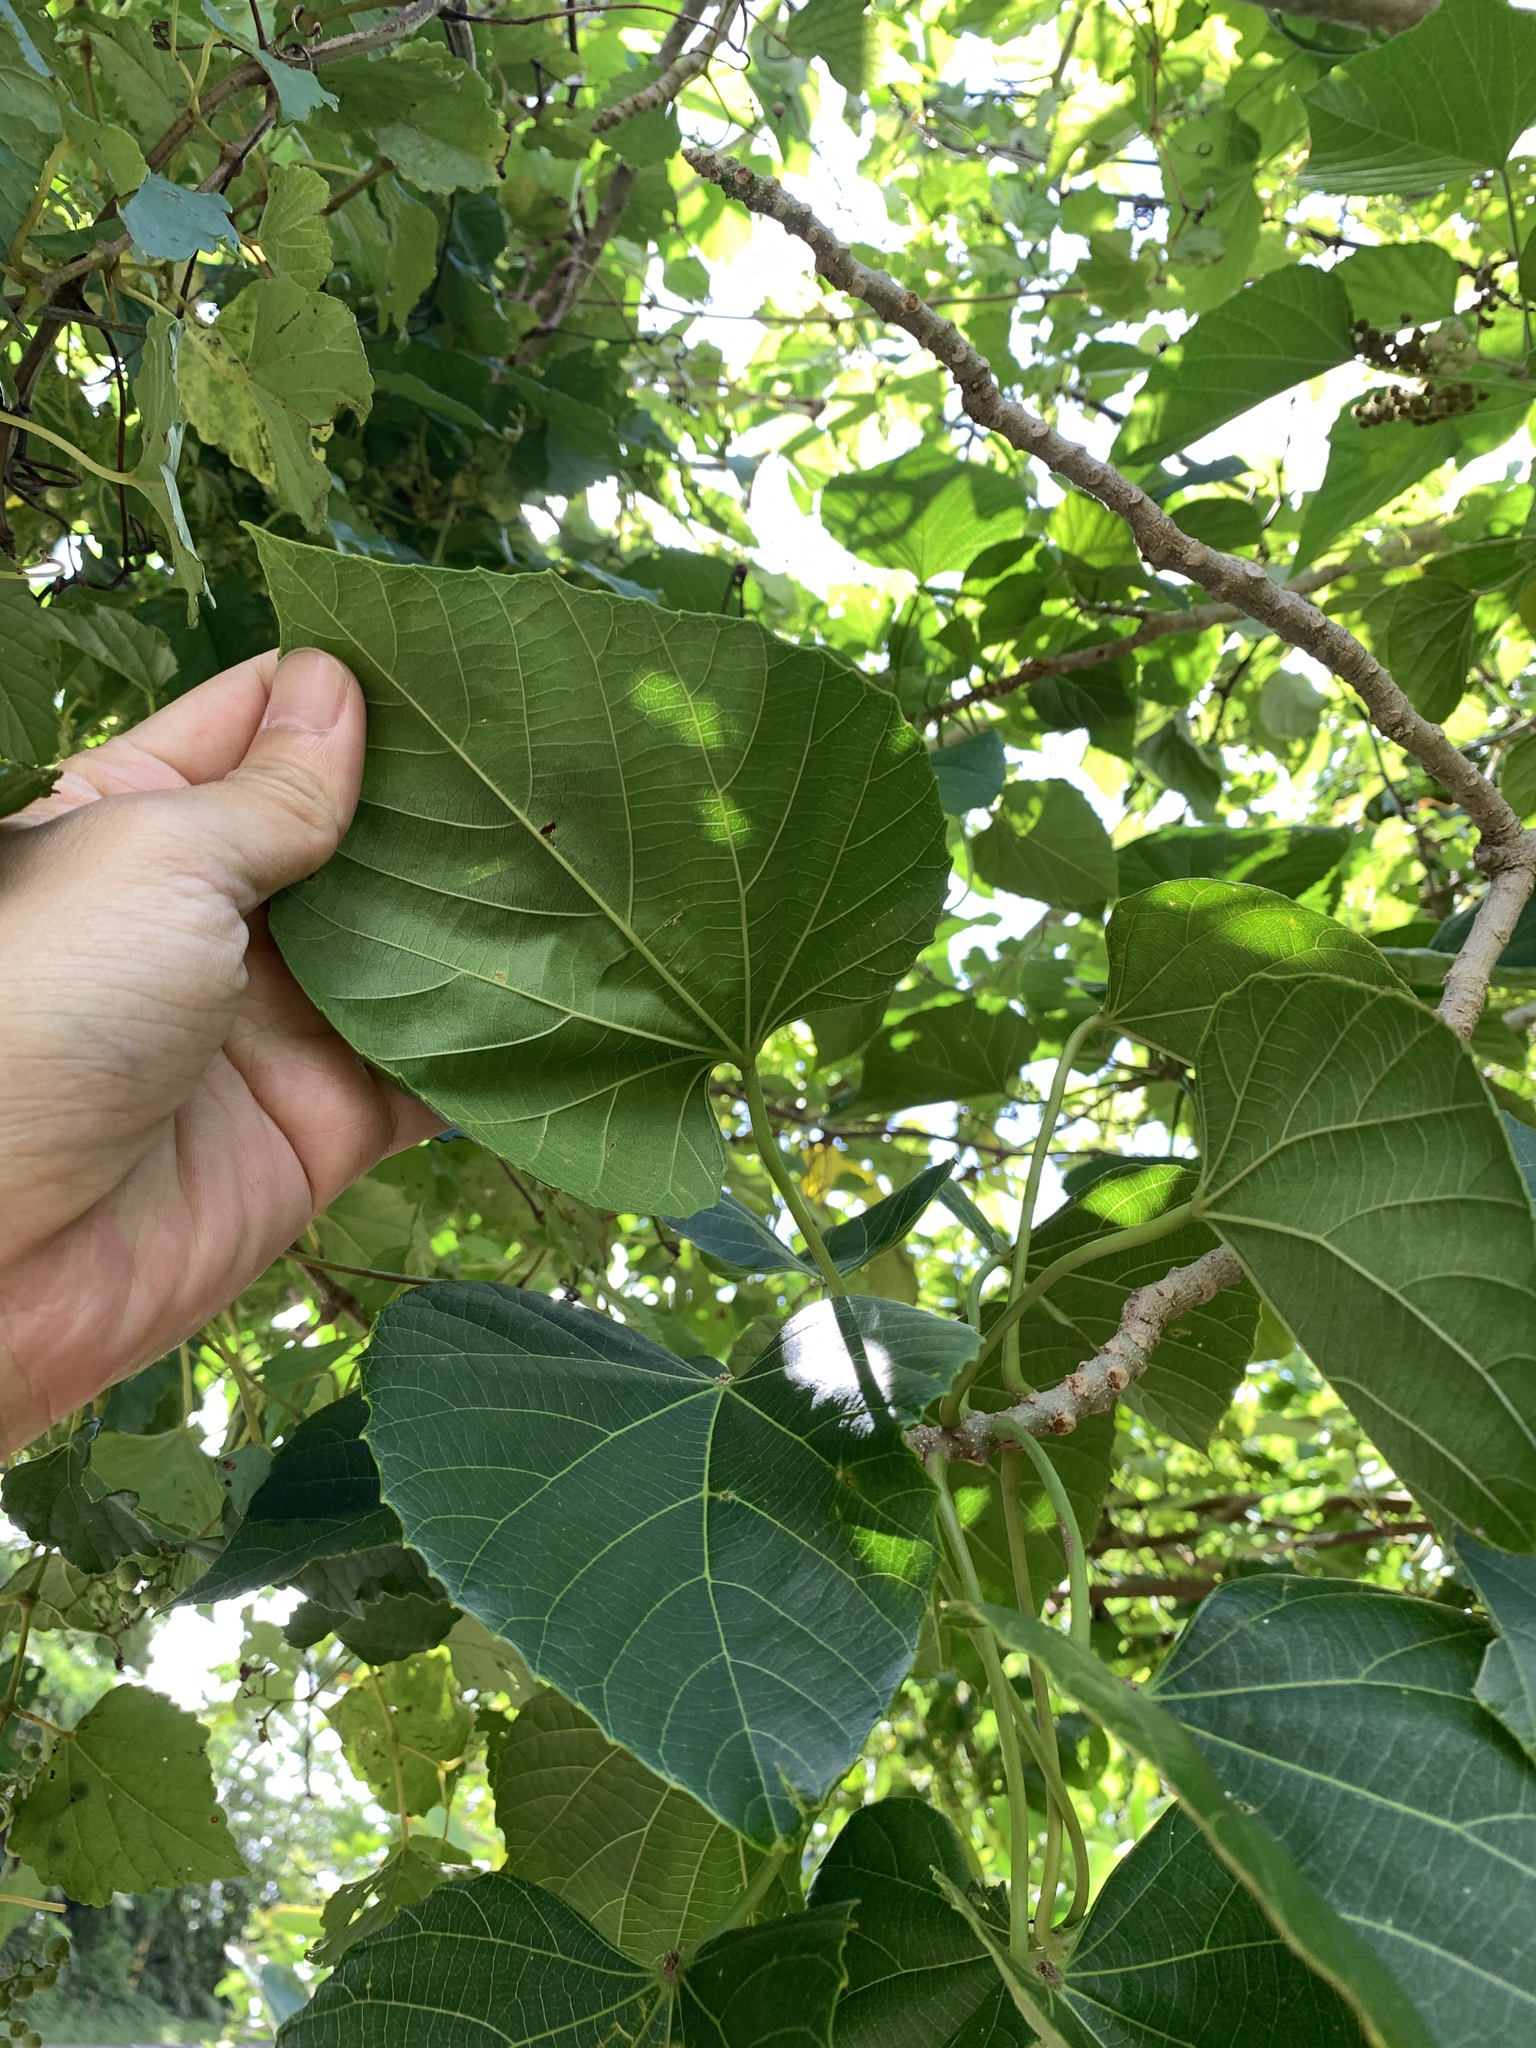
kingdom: Plantae
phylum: Tracheophyta
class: Magnoliopsida
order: Malpighiales
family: Euphorbiaceae
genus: Melanolepis
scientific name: Melanolepis multiglandulosa
